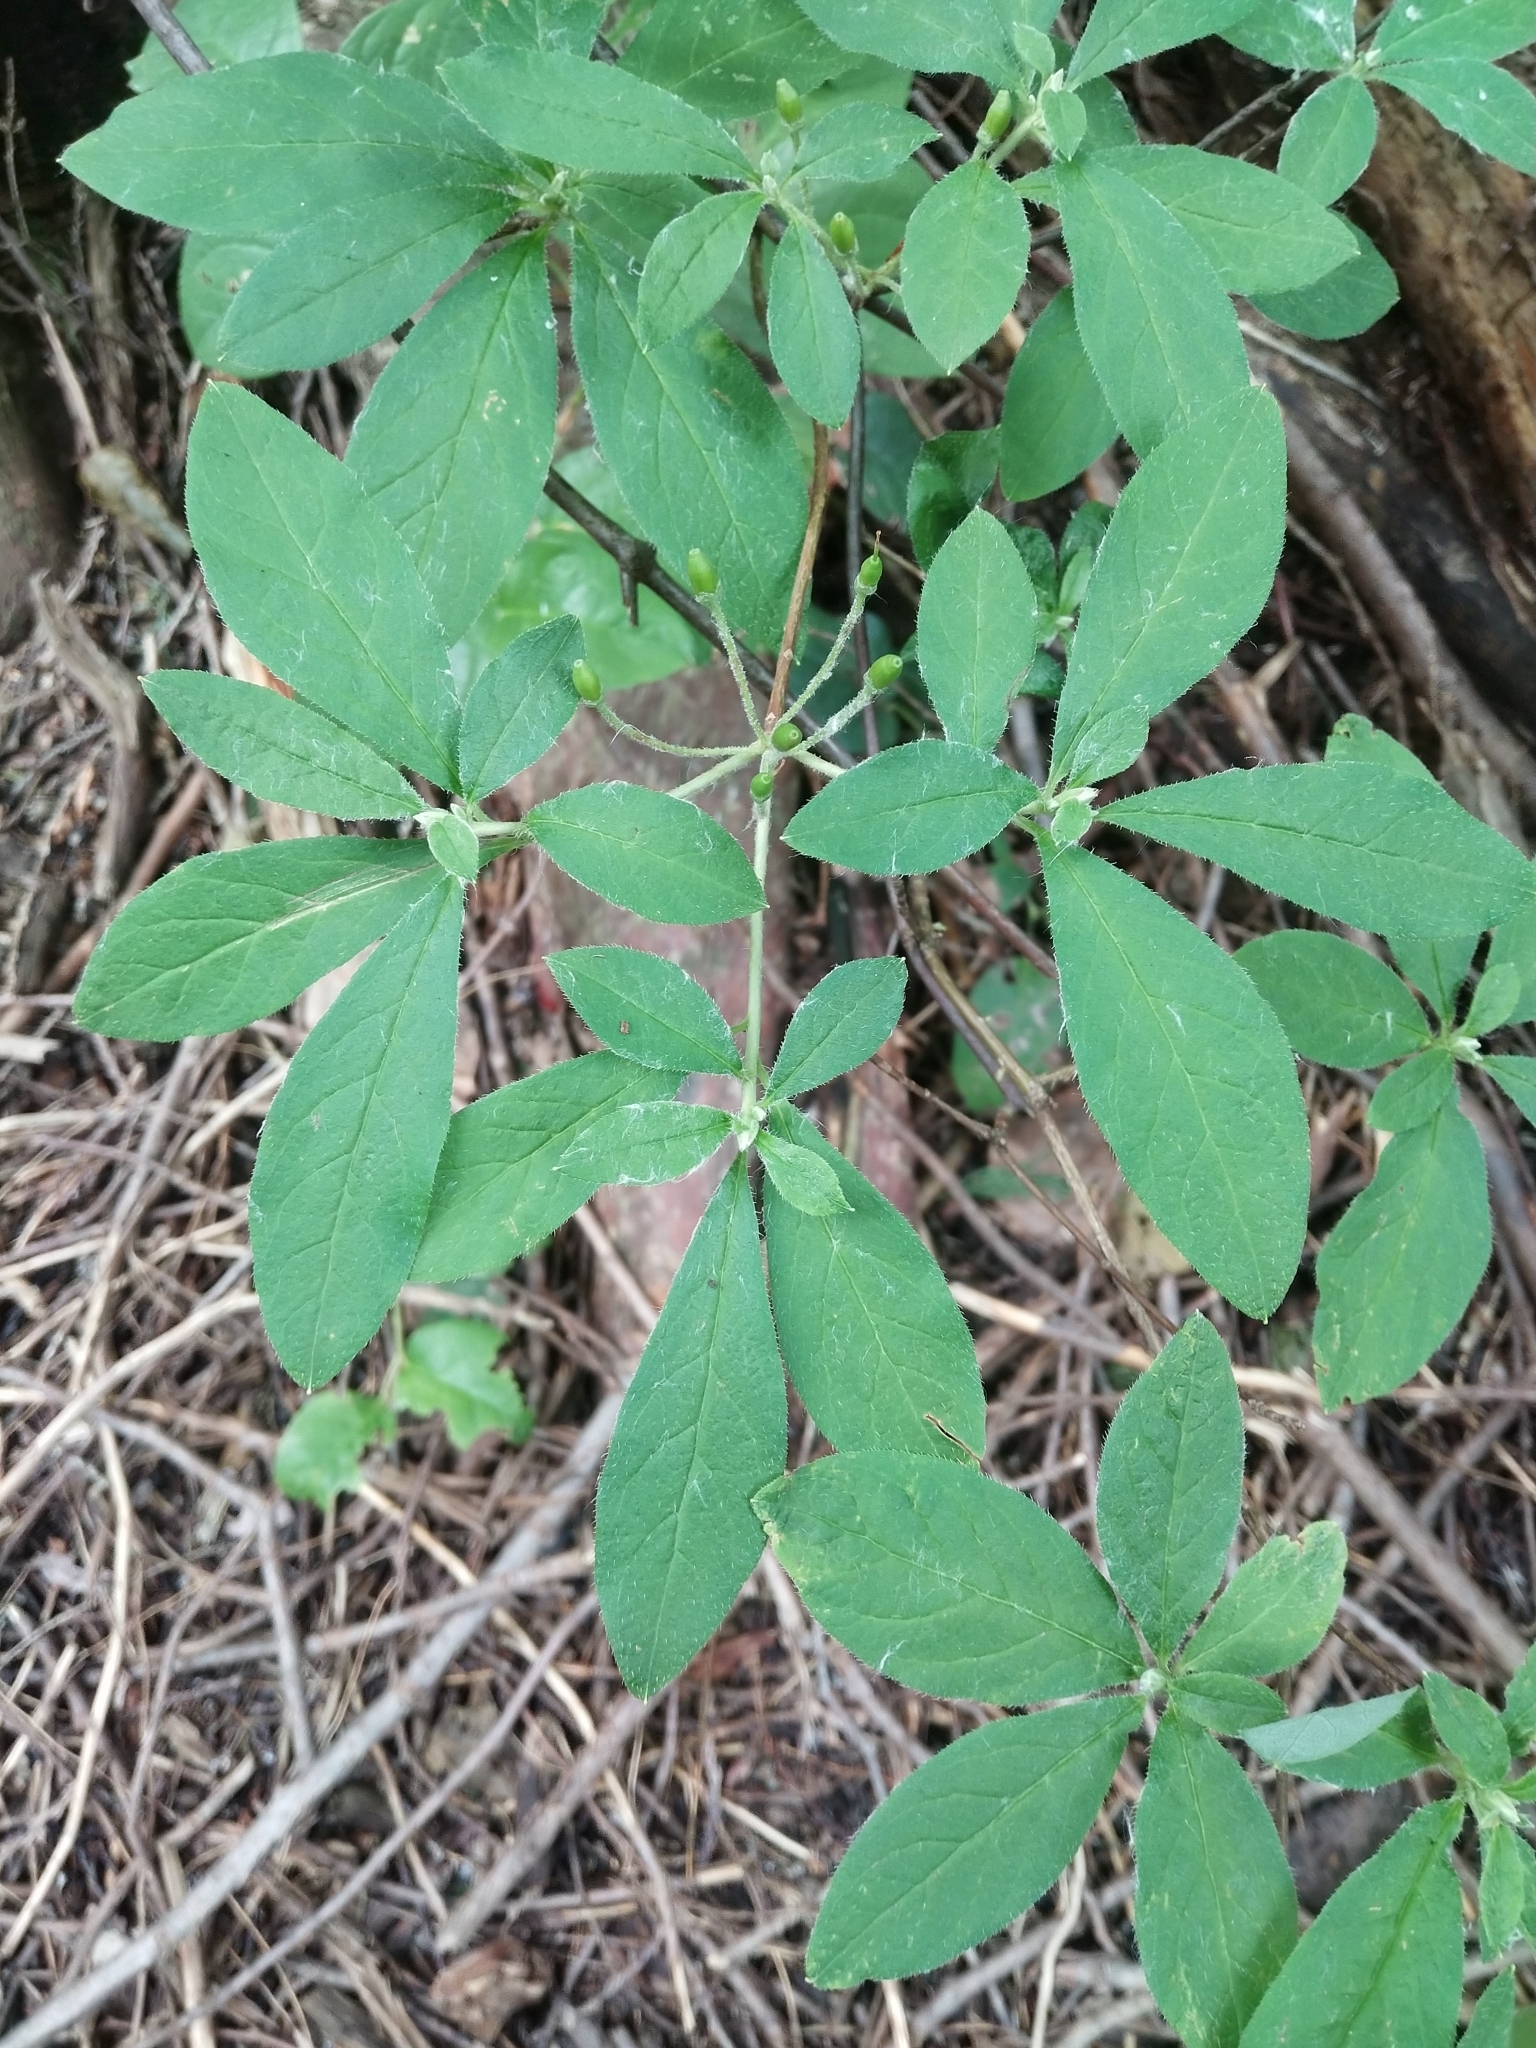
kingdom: Plantae
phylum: Tracheophyta
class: Magnoliopsida
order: Ericales
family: Ericaceae
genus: Rhododendron
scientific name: Rhododendron menziesii
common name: Pacific menziesia
